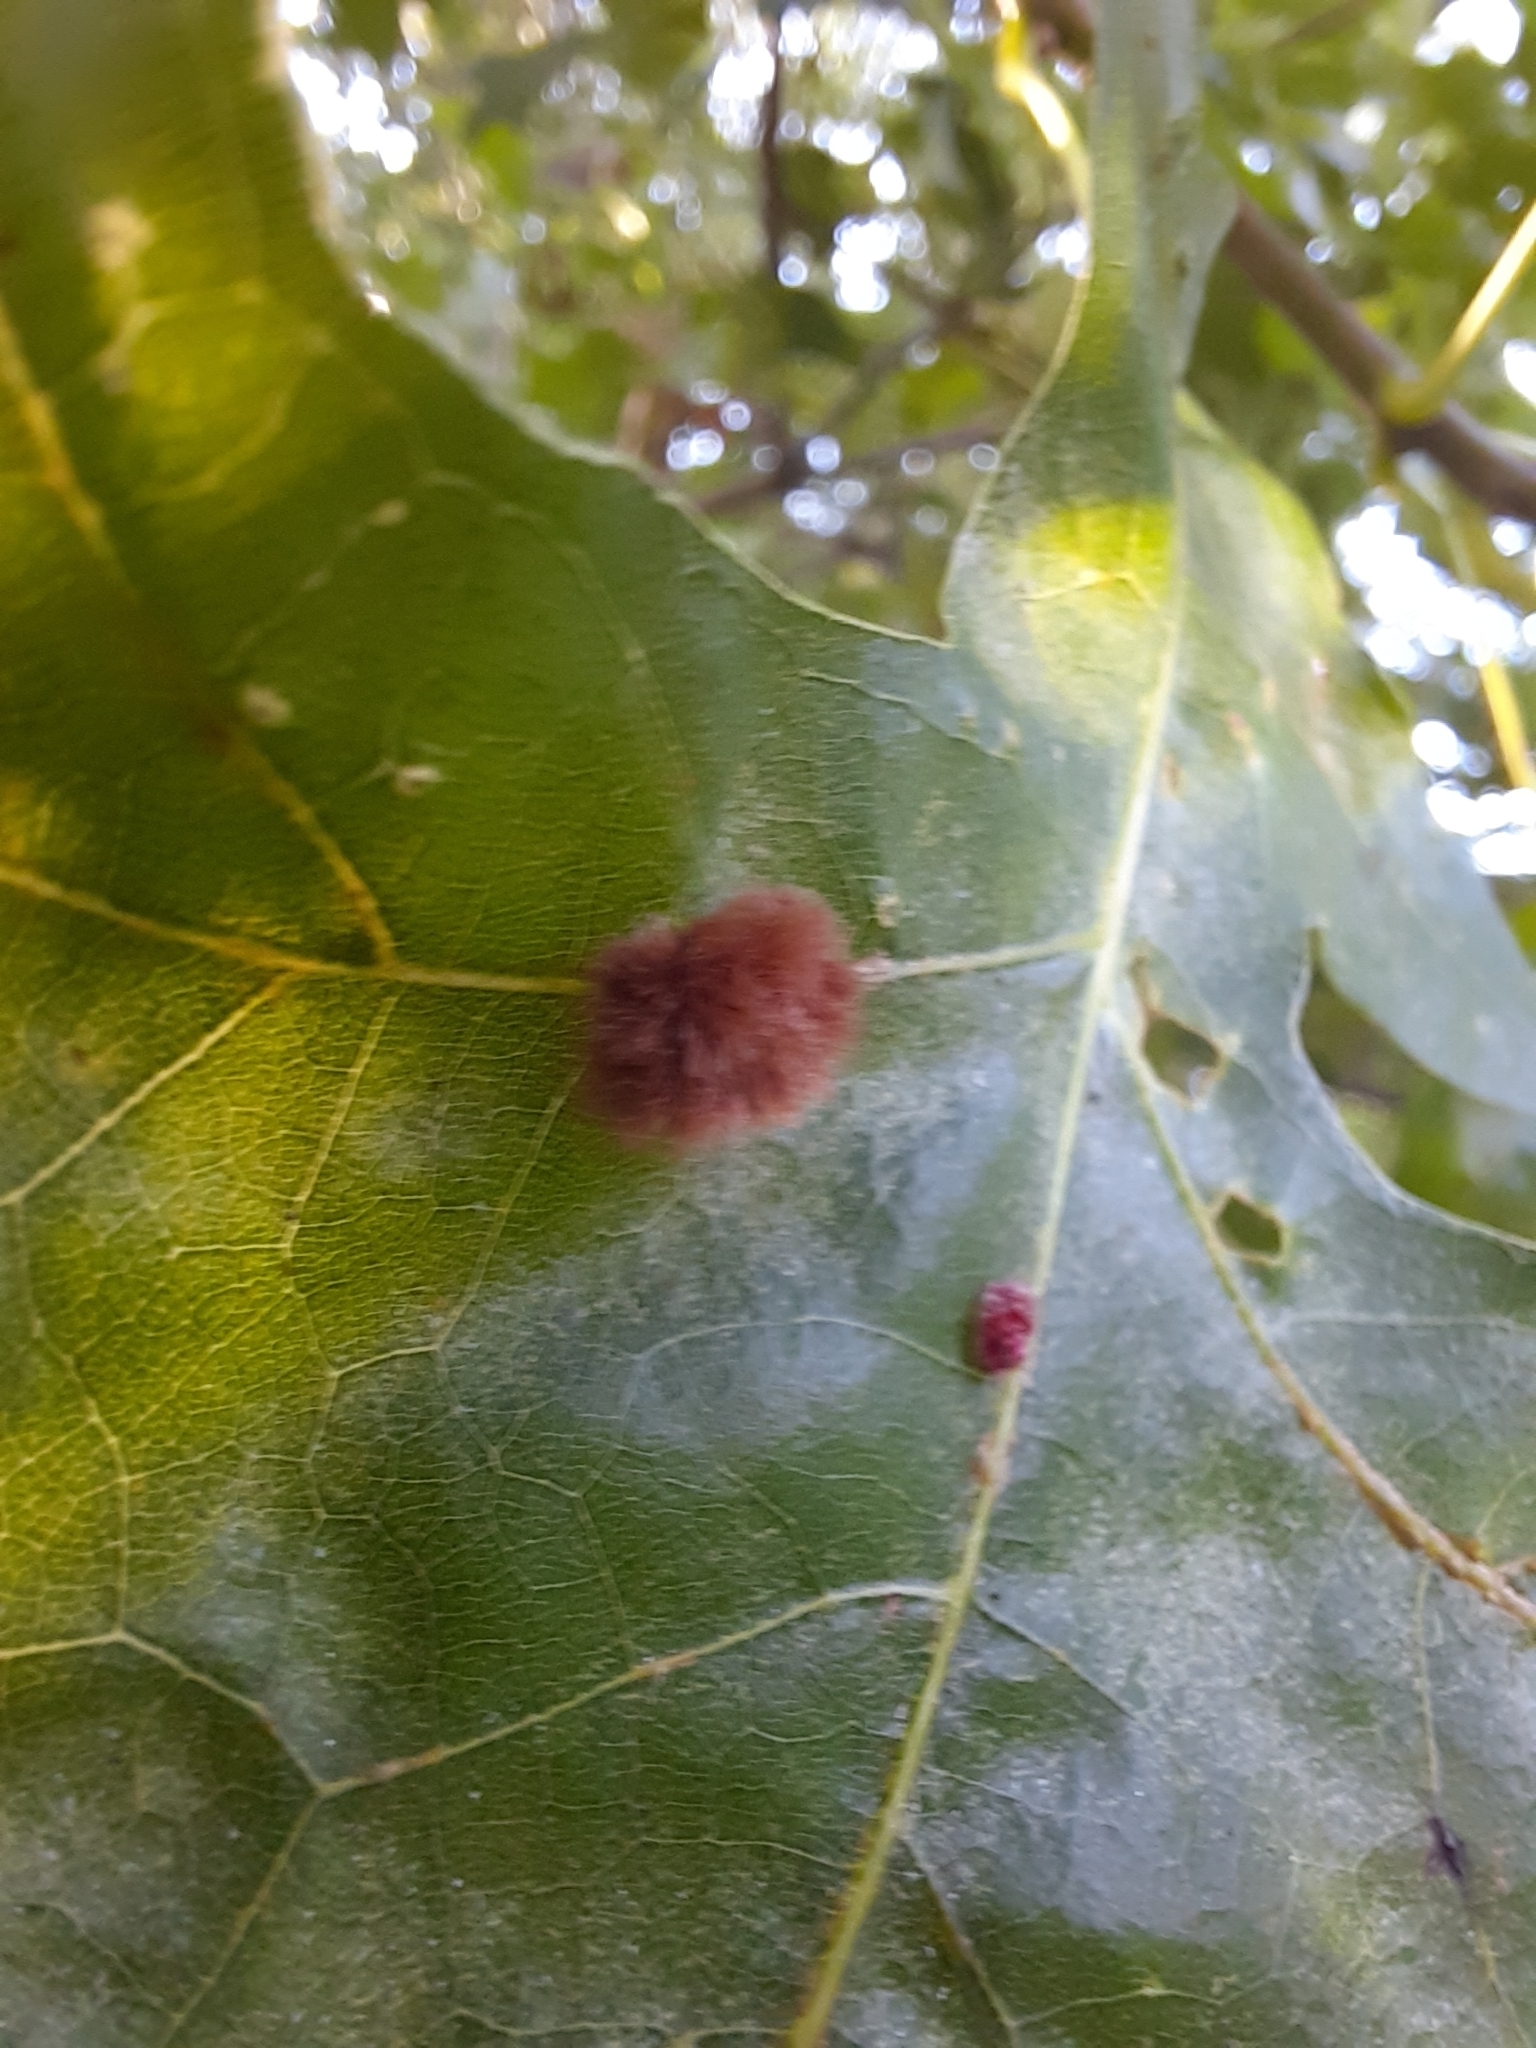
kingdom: Animalia
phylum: Arthropoda
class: Insecta
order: Hymenoptera
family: Cynipidae
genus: Callirhytis
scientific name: Callirhytis
